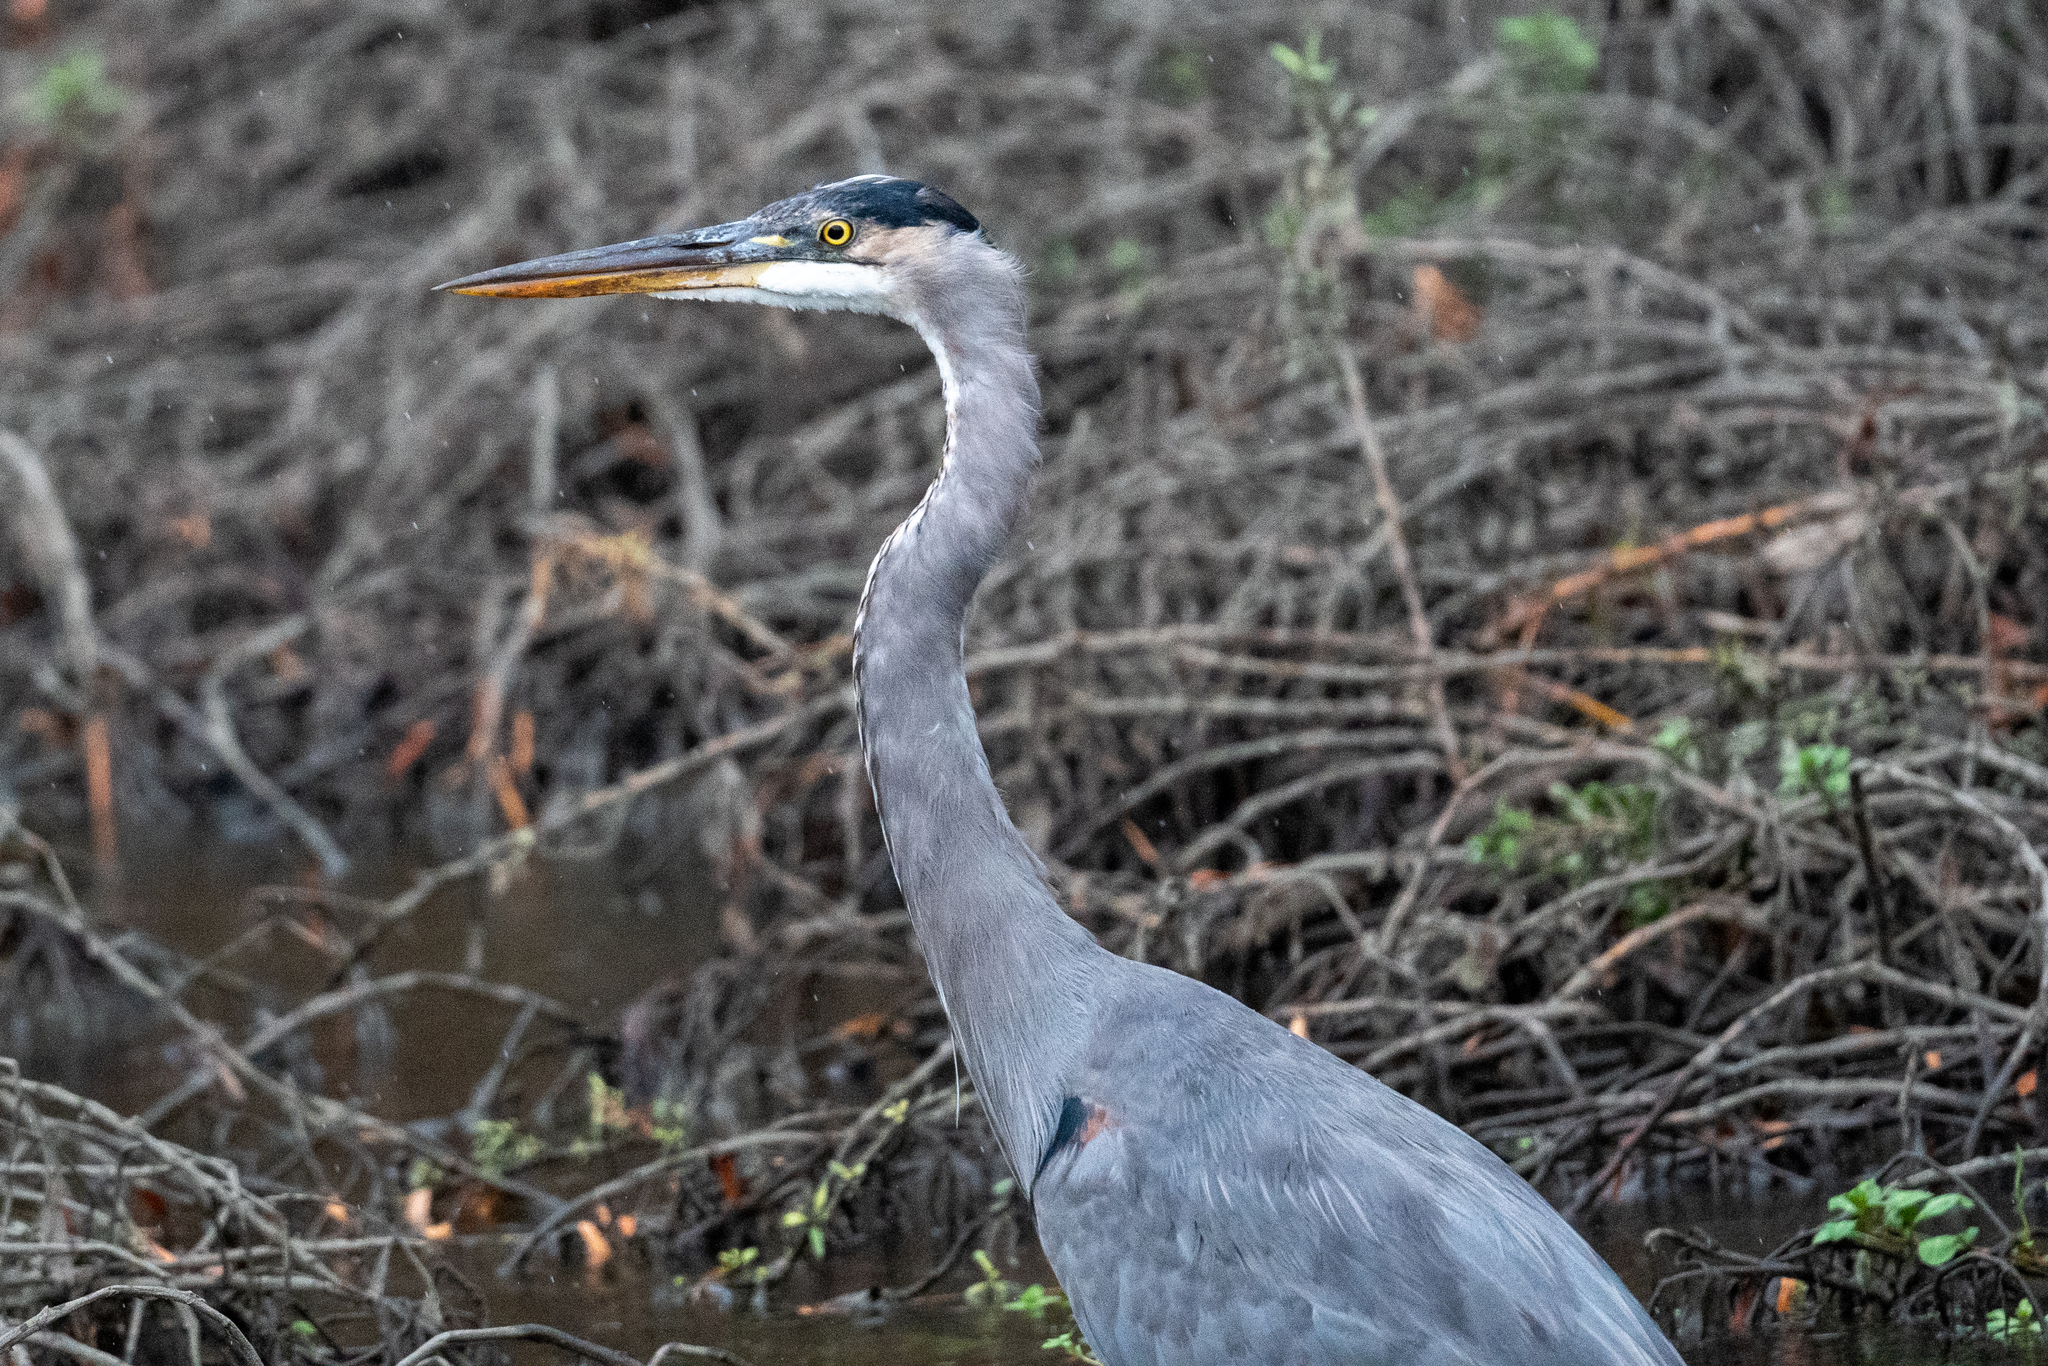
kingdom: Animalia
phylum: Chordata
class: Aves
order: Pelecaniformes
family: Ardeidae
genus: Ardea
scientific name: Ardea herodias
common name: Great blue heron
